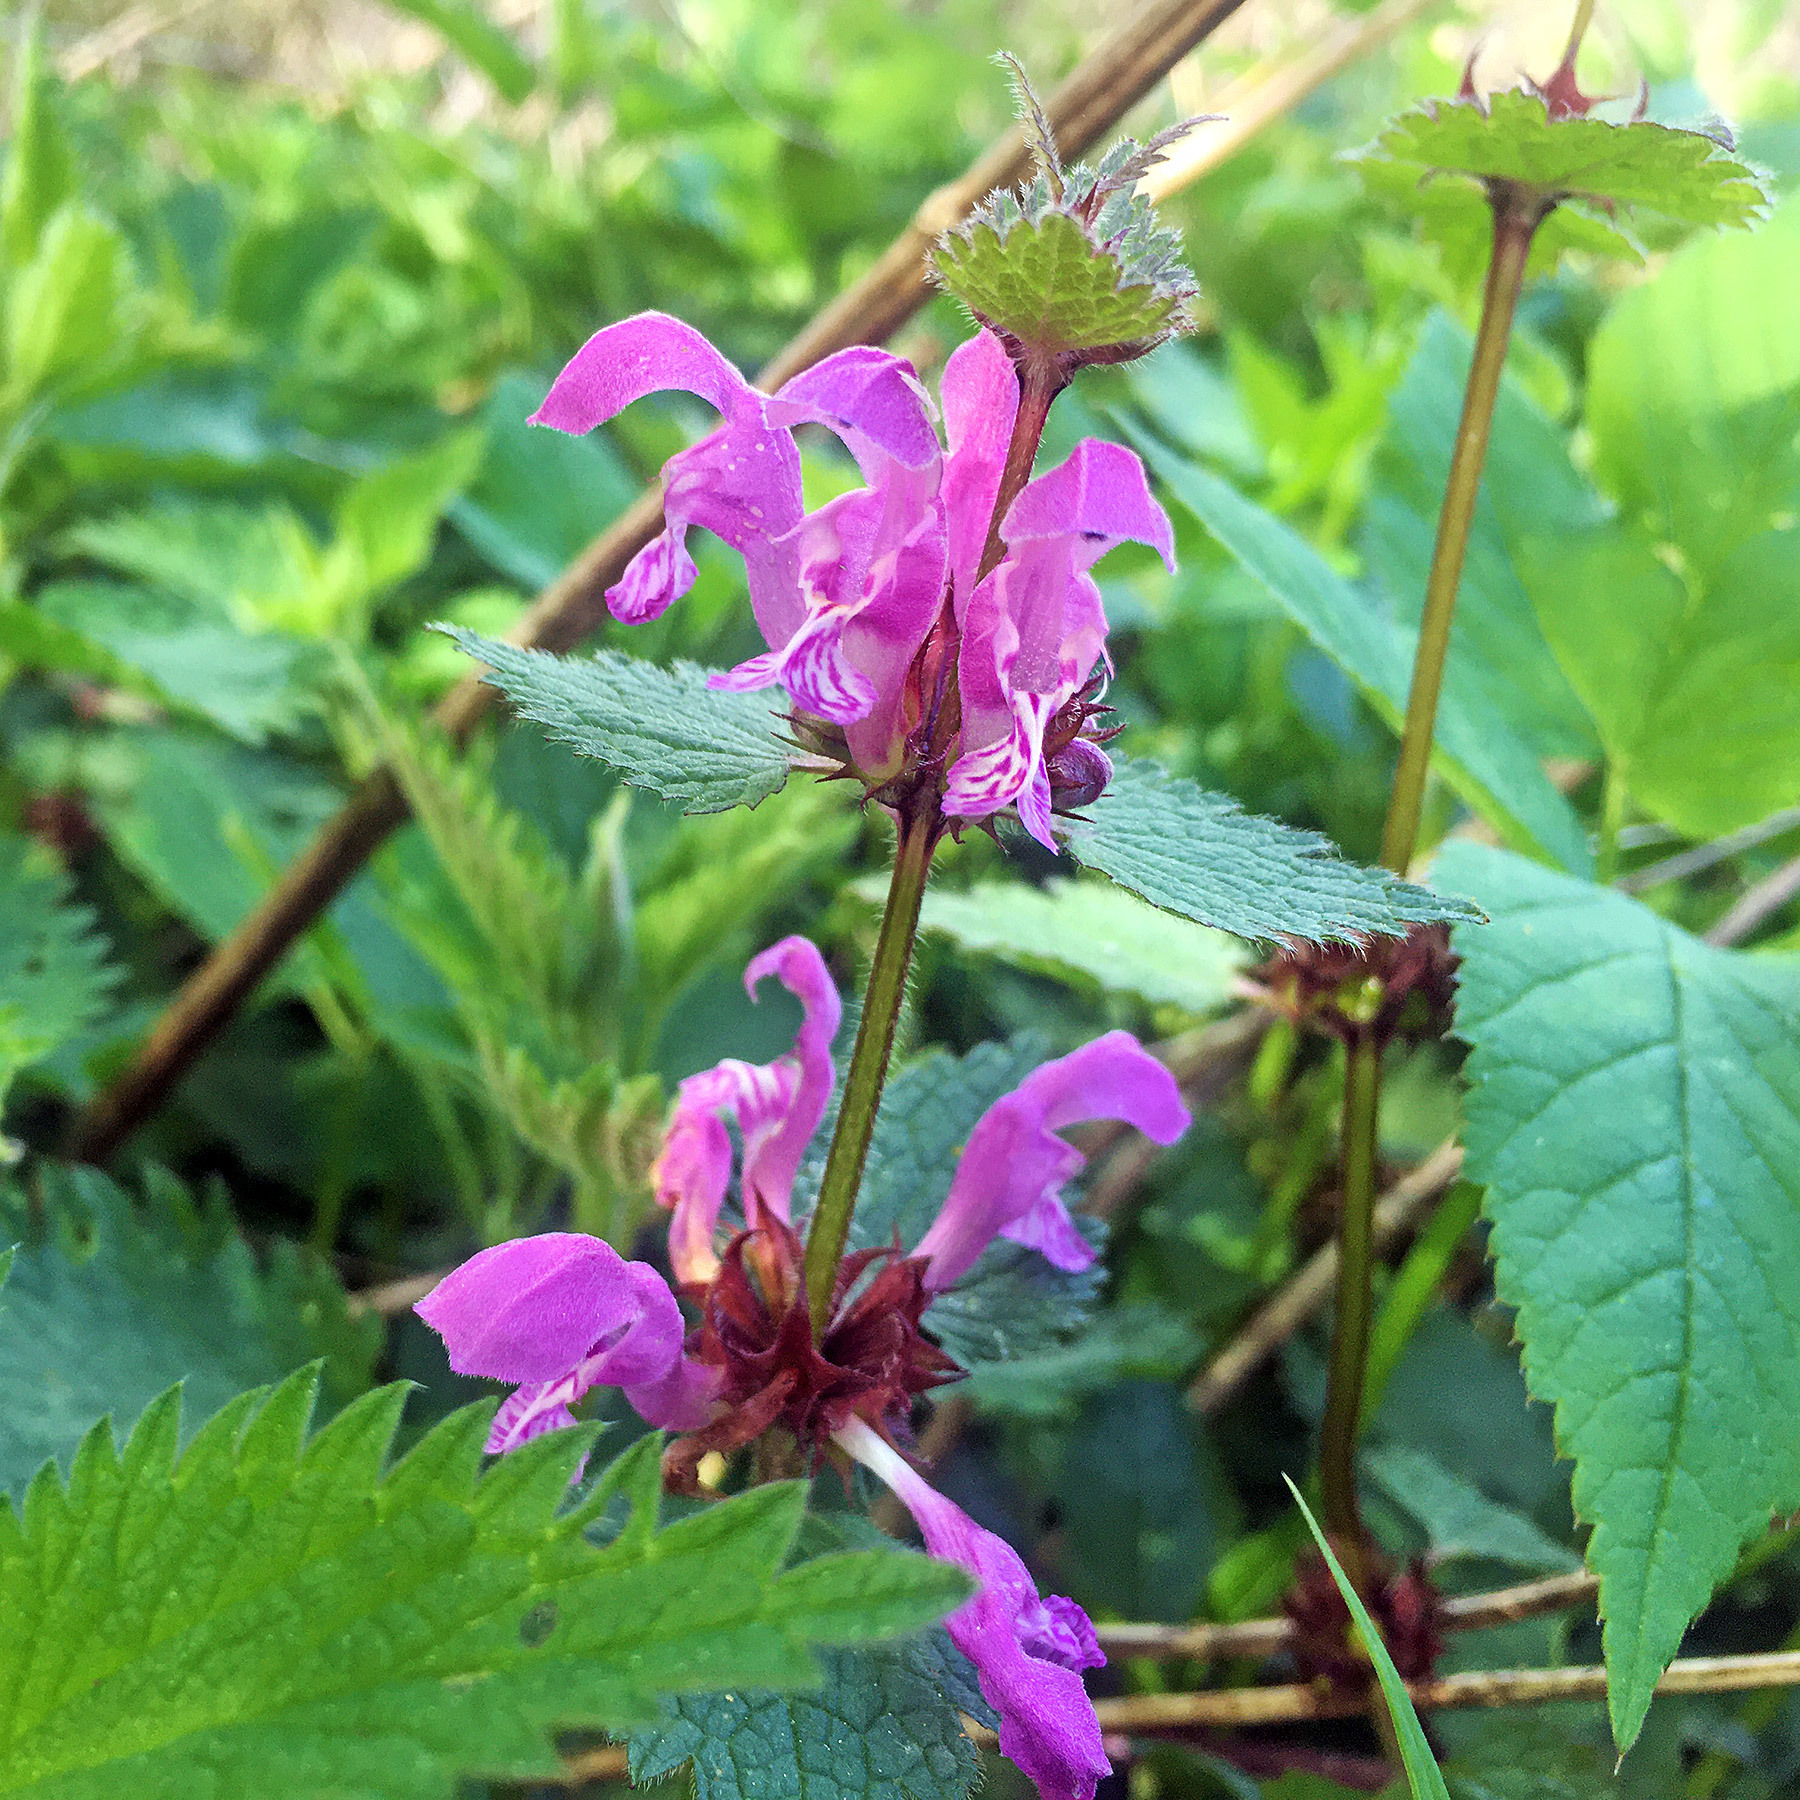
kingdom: Plantae
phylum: Tracheophyta
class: Magnoliopsida
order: Lamiales
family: Lamiaceae
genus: Lamium
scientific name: Lamium maculatum
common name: Spotted dead-nettle
